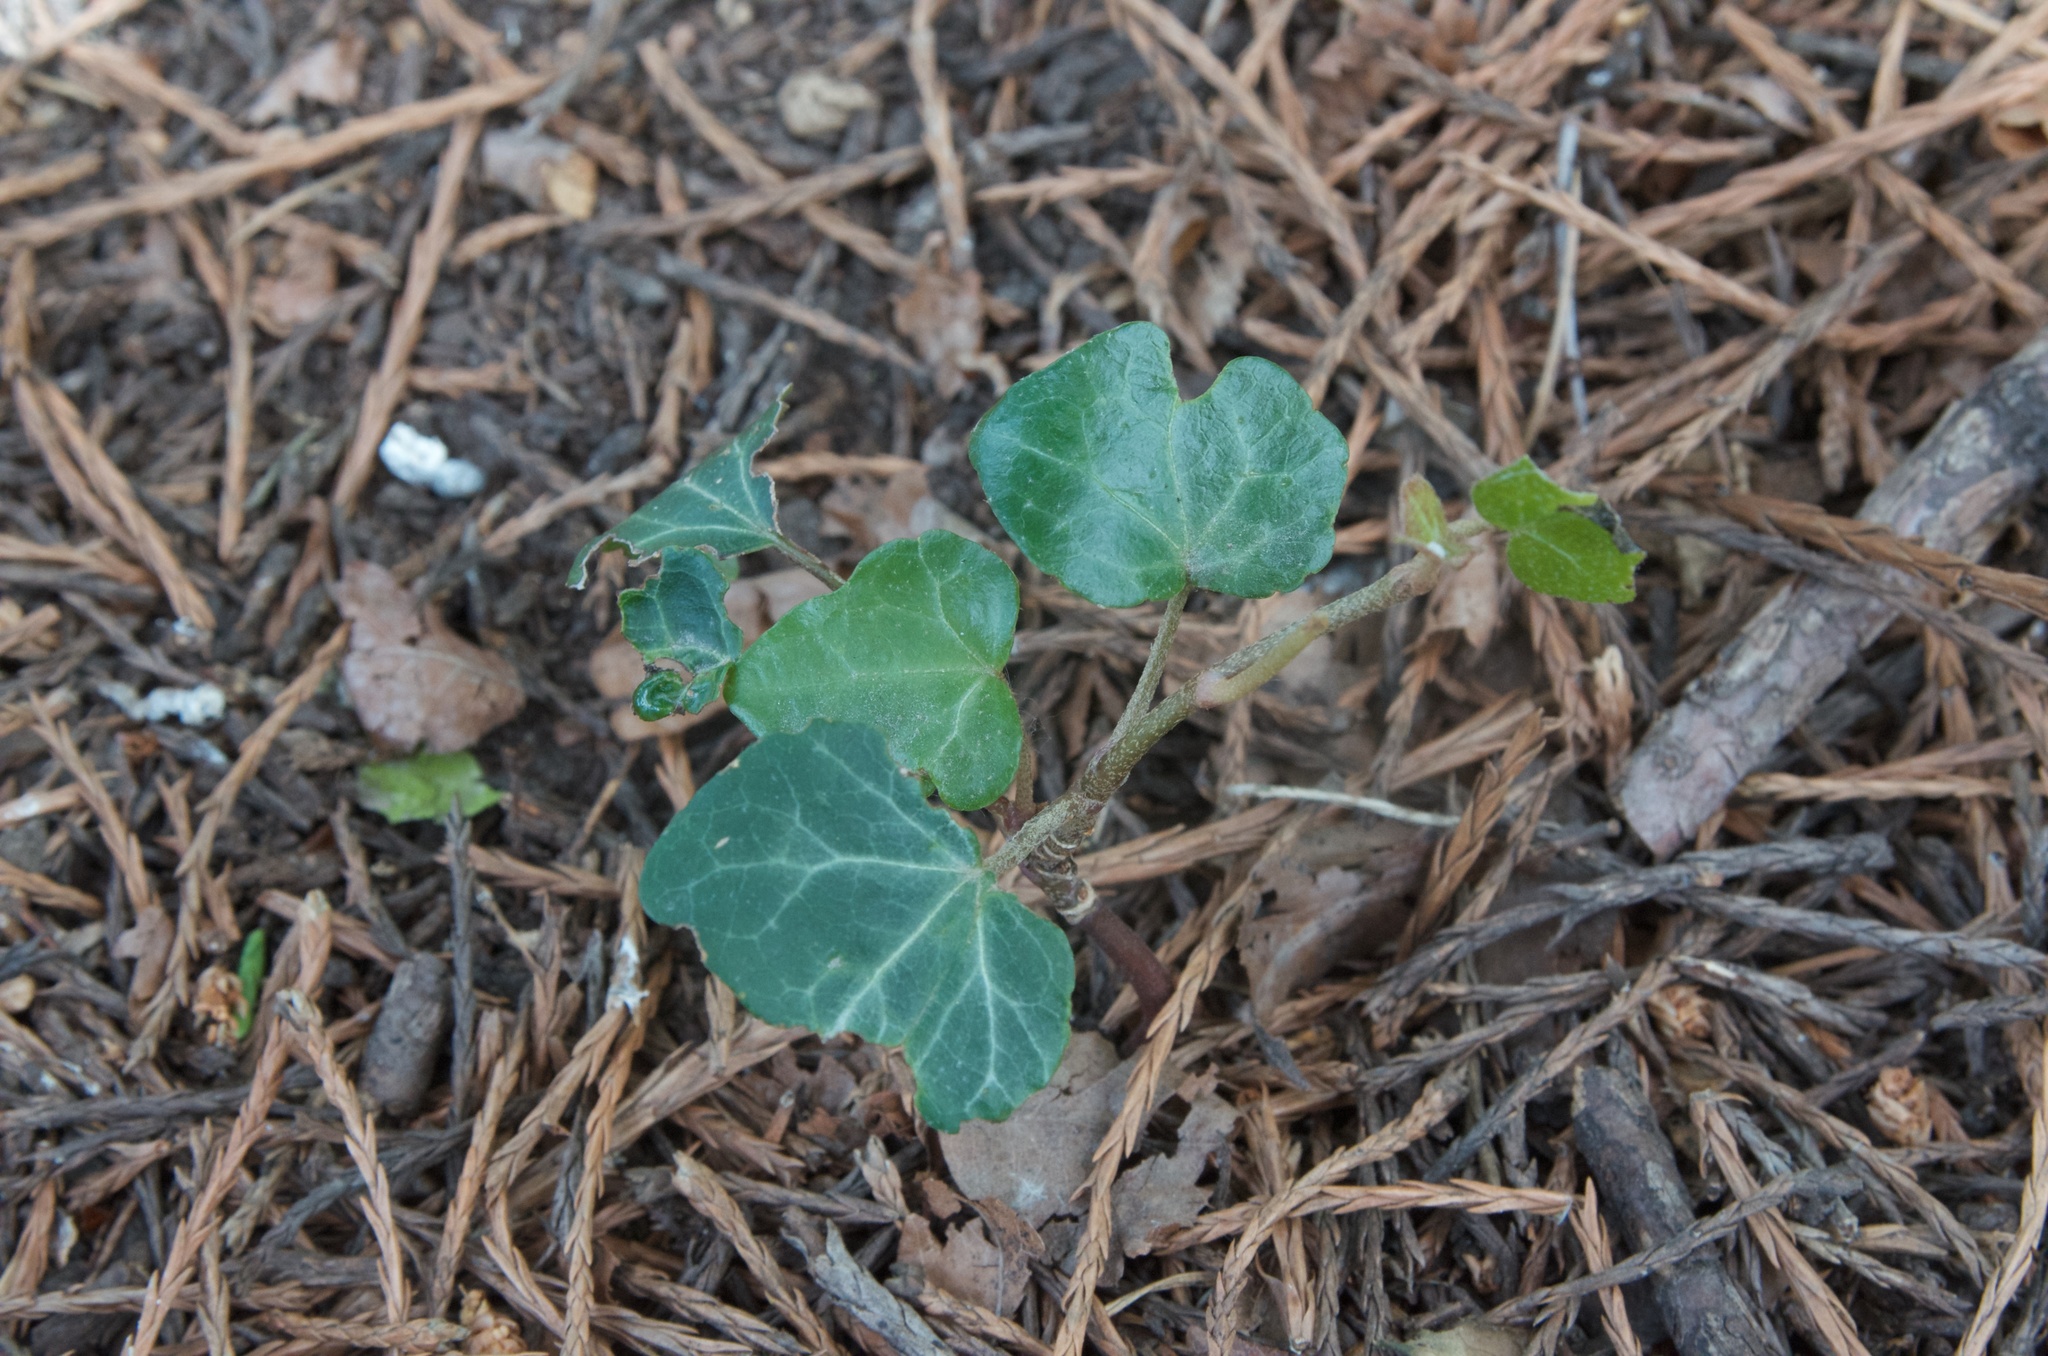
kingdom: Plantae
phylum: Tracheophyta
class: Magnoliopsida
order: Apiales
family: Araliaceae
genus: Hedera
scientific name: Hedera helix
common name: Ivy
